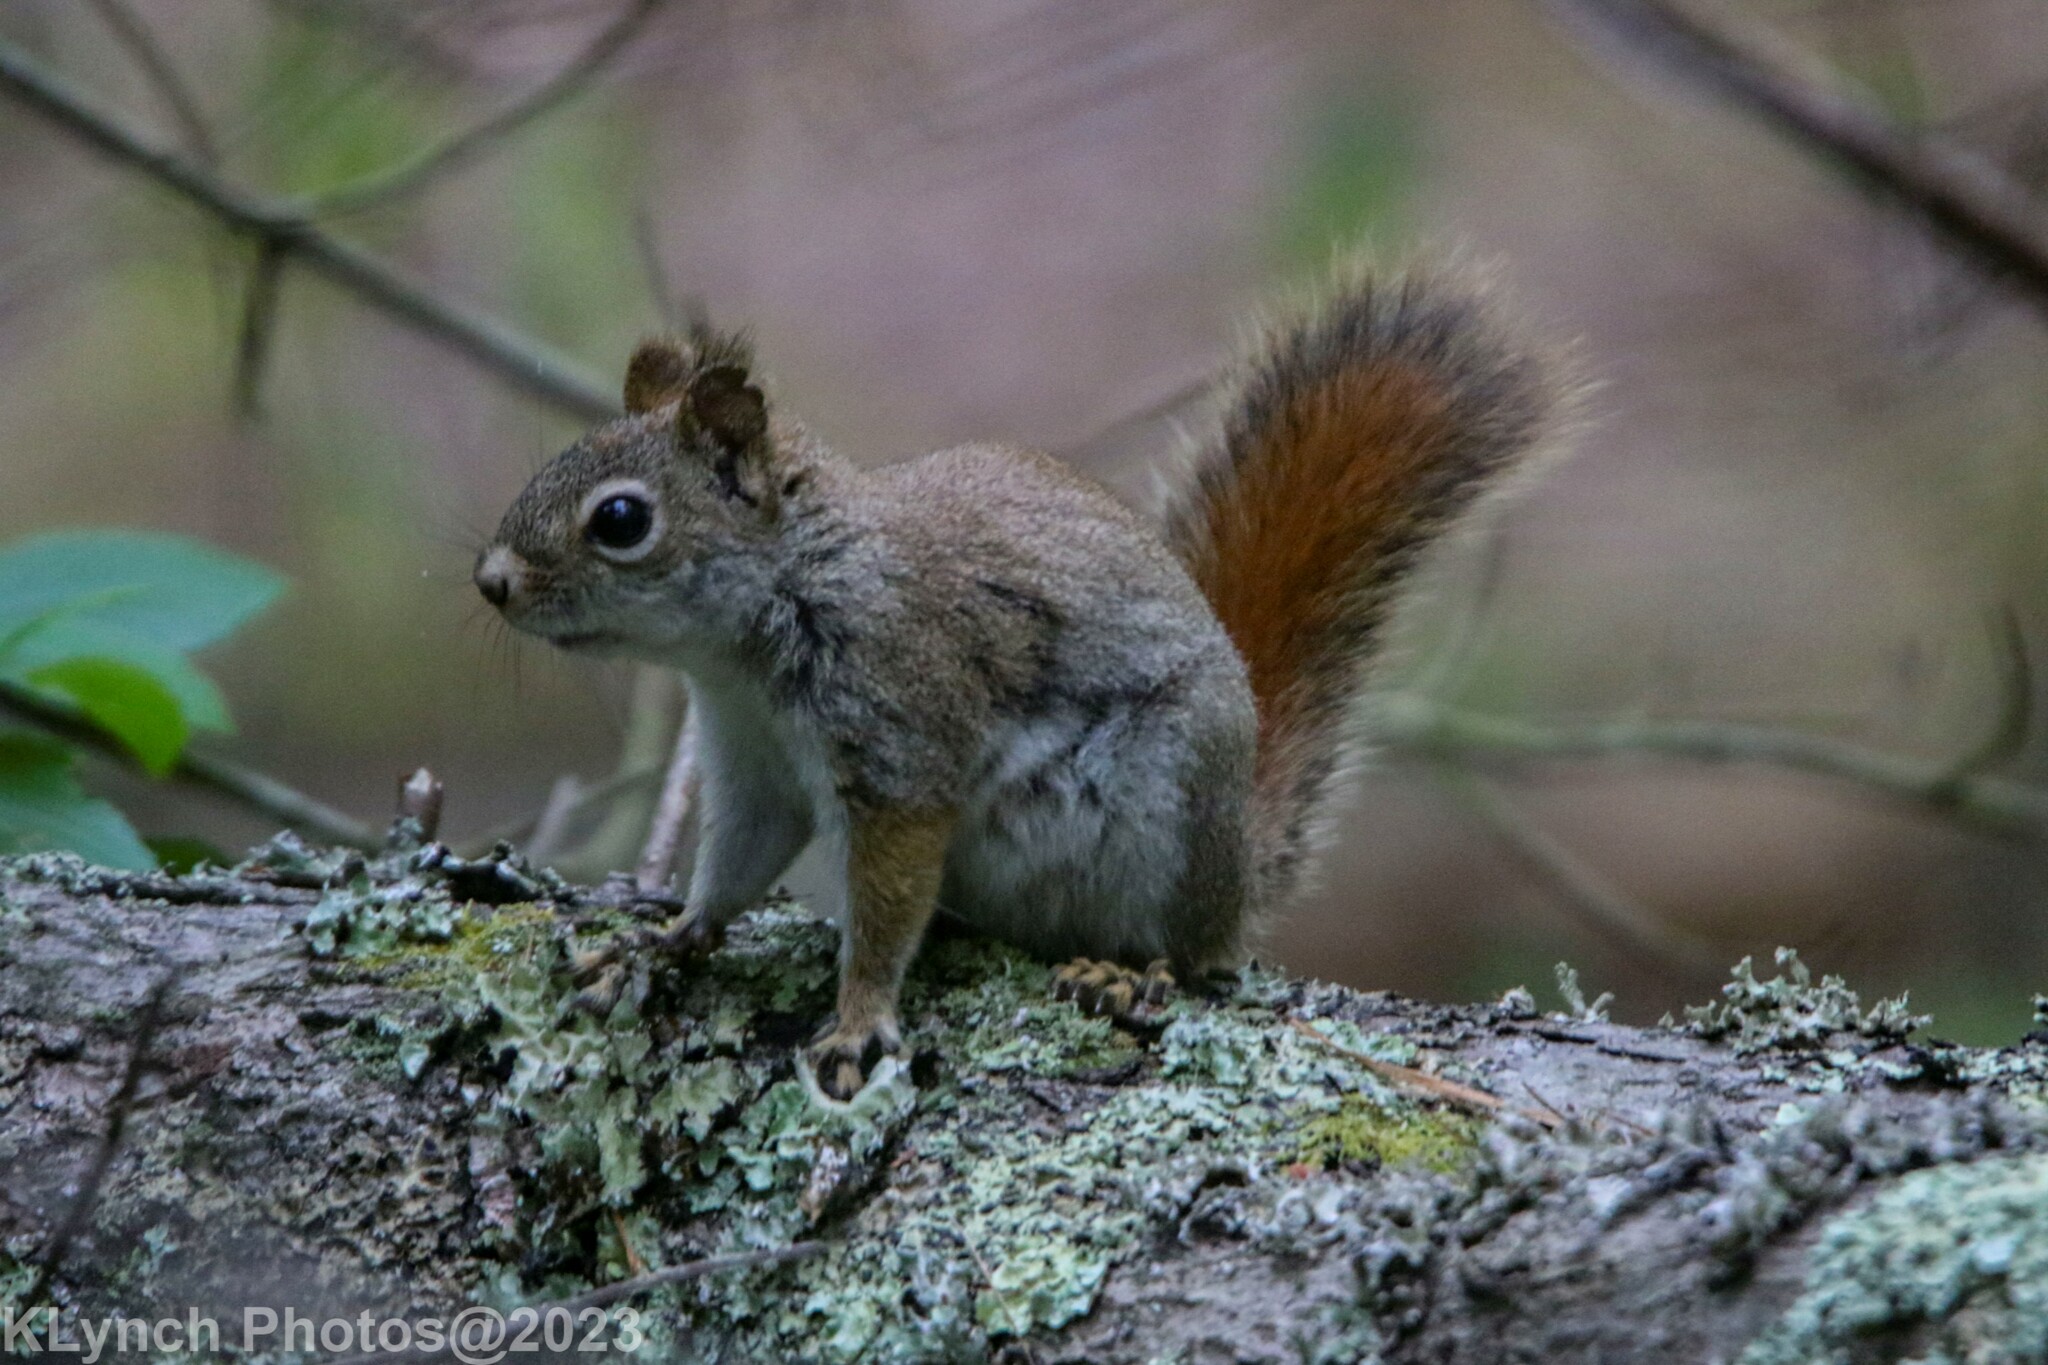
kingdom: Animalia
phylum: Chordata
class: Mammalia
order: Rodentia
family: Sciuridae
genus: Tamiasciurus
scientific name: Tamiasciurus hudsonicus
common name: Red squirrel
